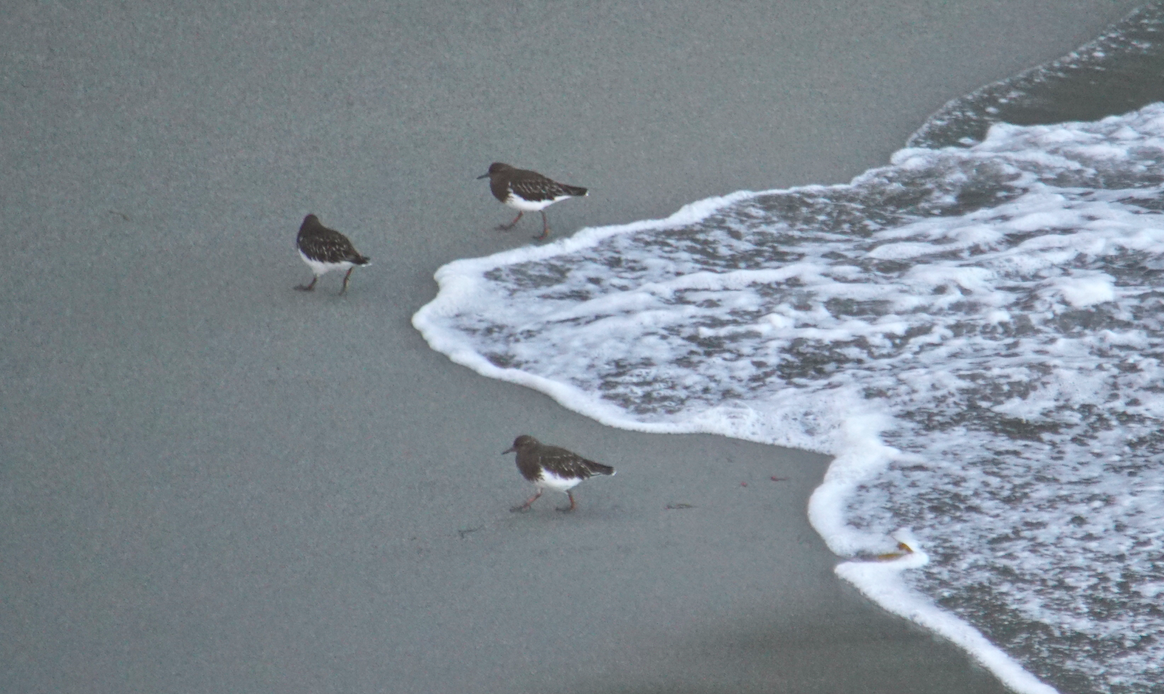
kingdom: Animalia
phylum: Chordata
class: Aves
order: Charadriiformes
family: Scolopacidae
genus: Arenaria
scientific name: Arenaria melanocephala
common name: Black turnstone
